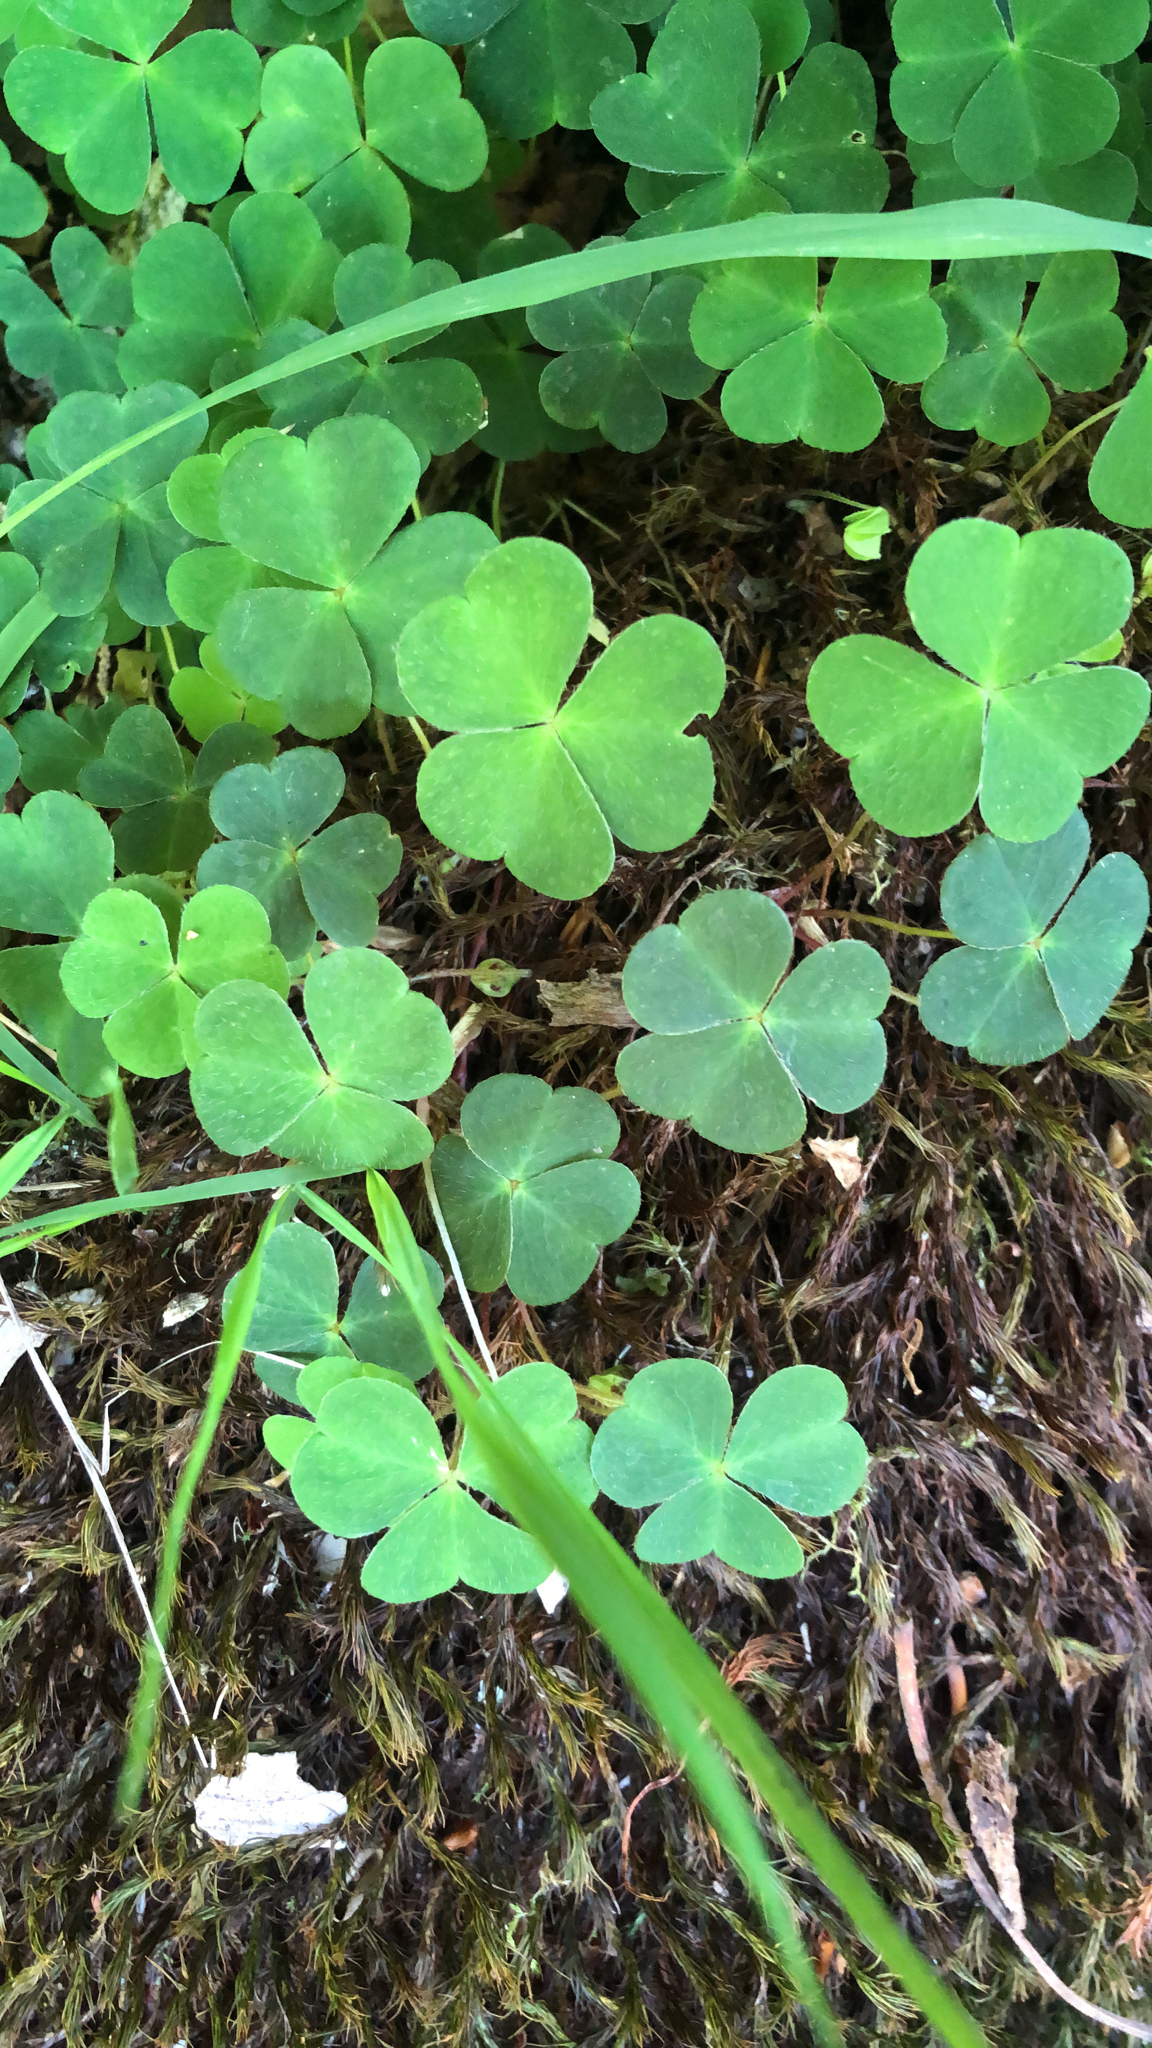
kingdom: Plantae
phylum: Tracheophyta
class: Magnoliopsida
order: Oxalidales
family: Oxalidaceae
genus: Oxalis
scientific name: Oxalis acetosella
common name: Wood-sorrel
